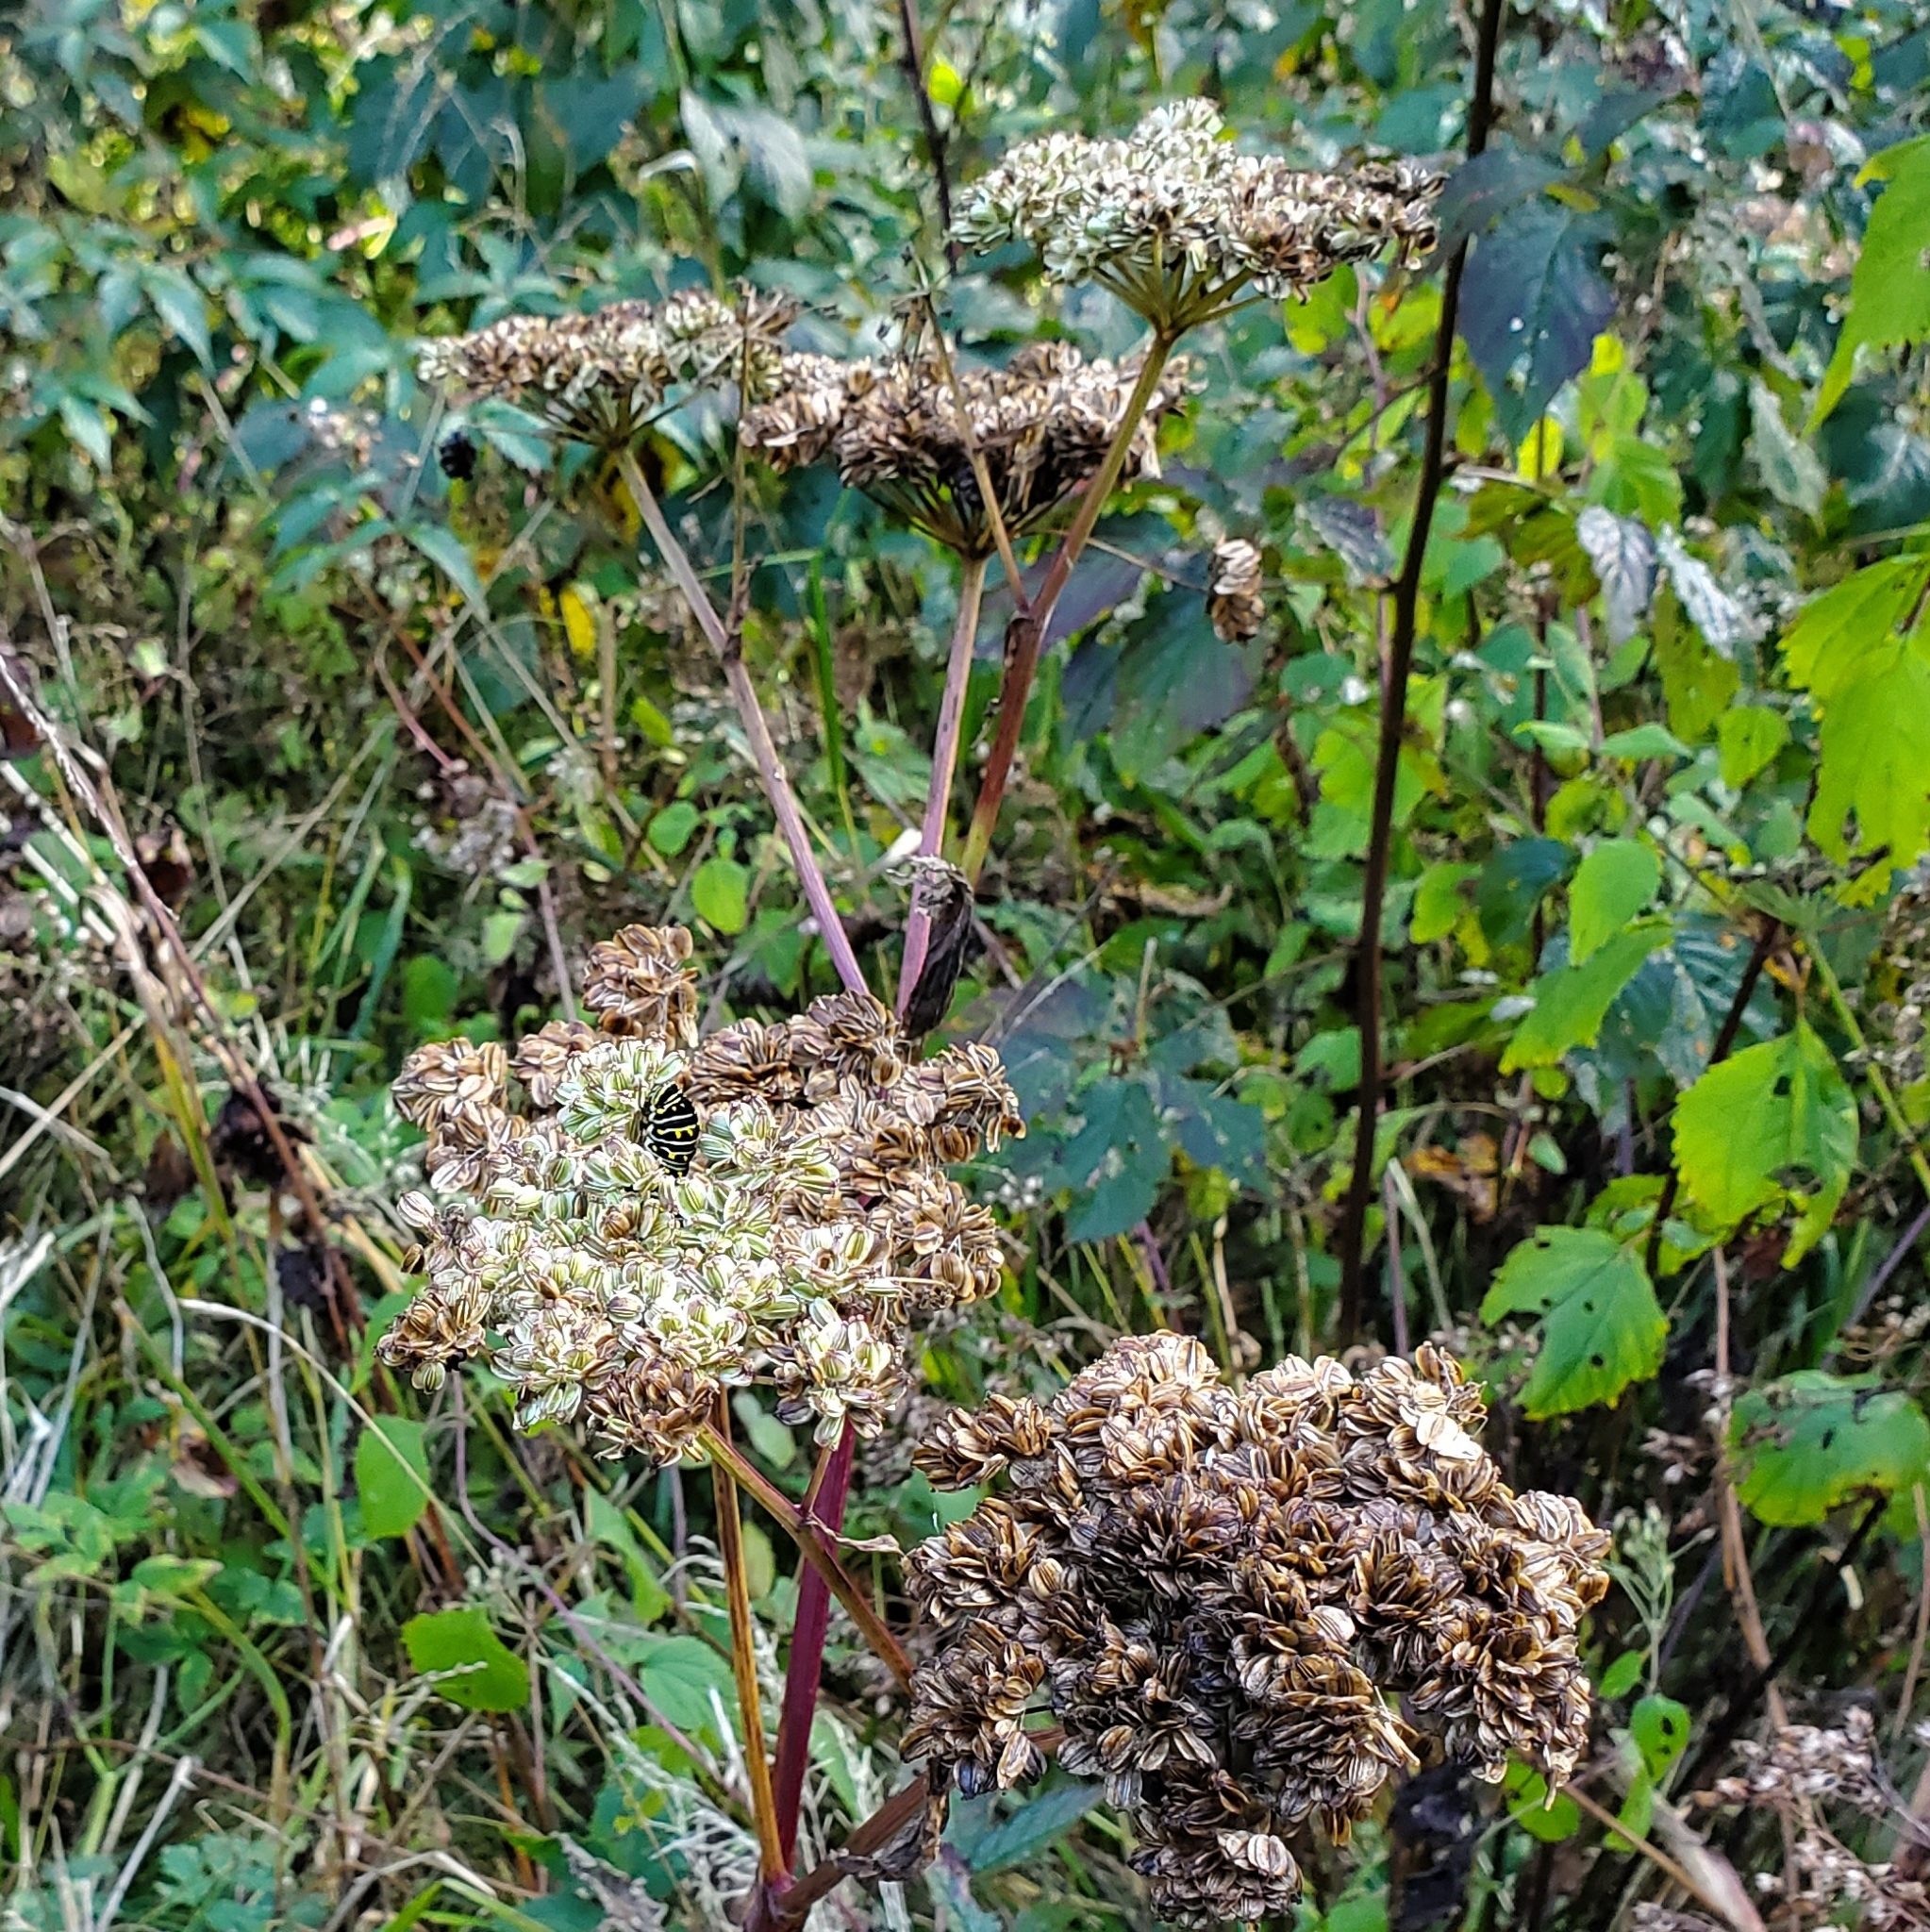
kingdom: Animalia
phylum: Arthropoda
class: Insecta
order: Lepidoptera
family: Papilionidae
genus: Papilio
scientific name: Papilio polyxenes
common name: Black swallowtail
